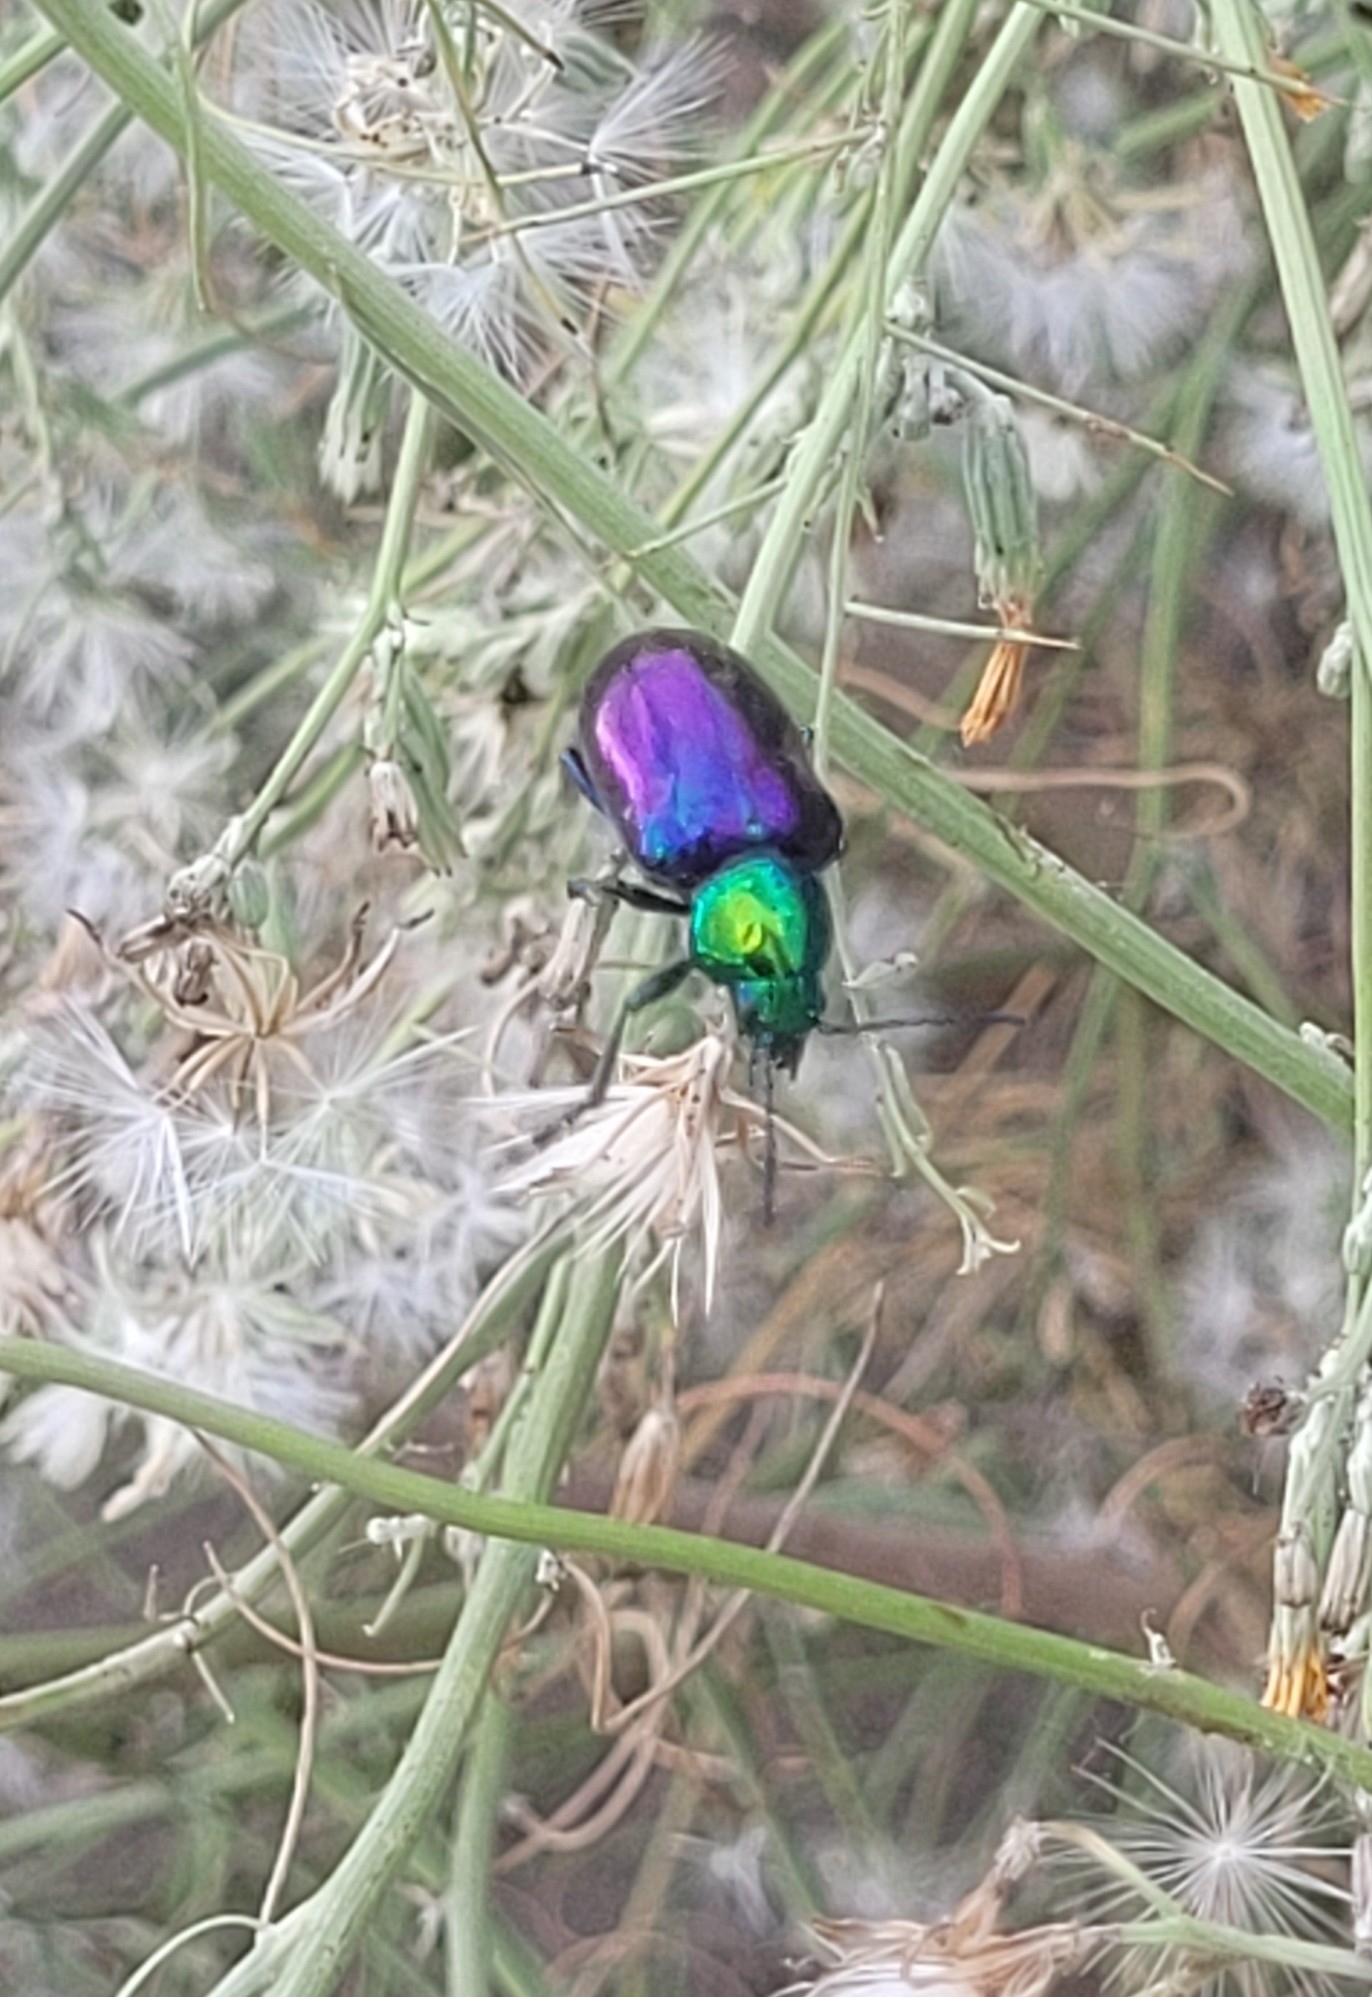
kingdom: Animalia
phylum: Arthropoda
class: Insecta
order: Coleoptera
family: Chrysomelidae
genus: Chrysochares
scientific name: Chrysochares
